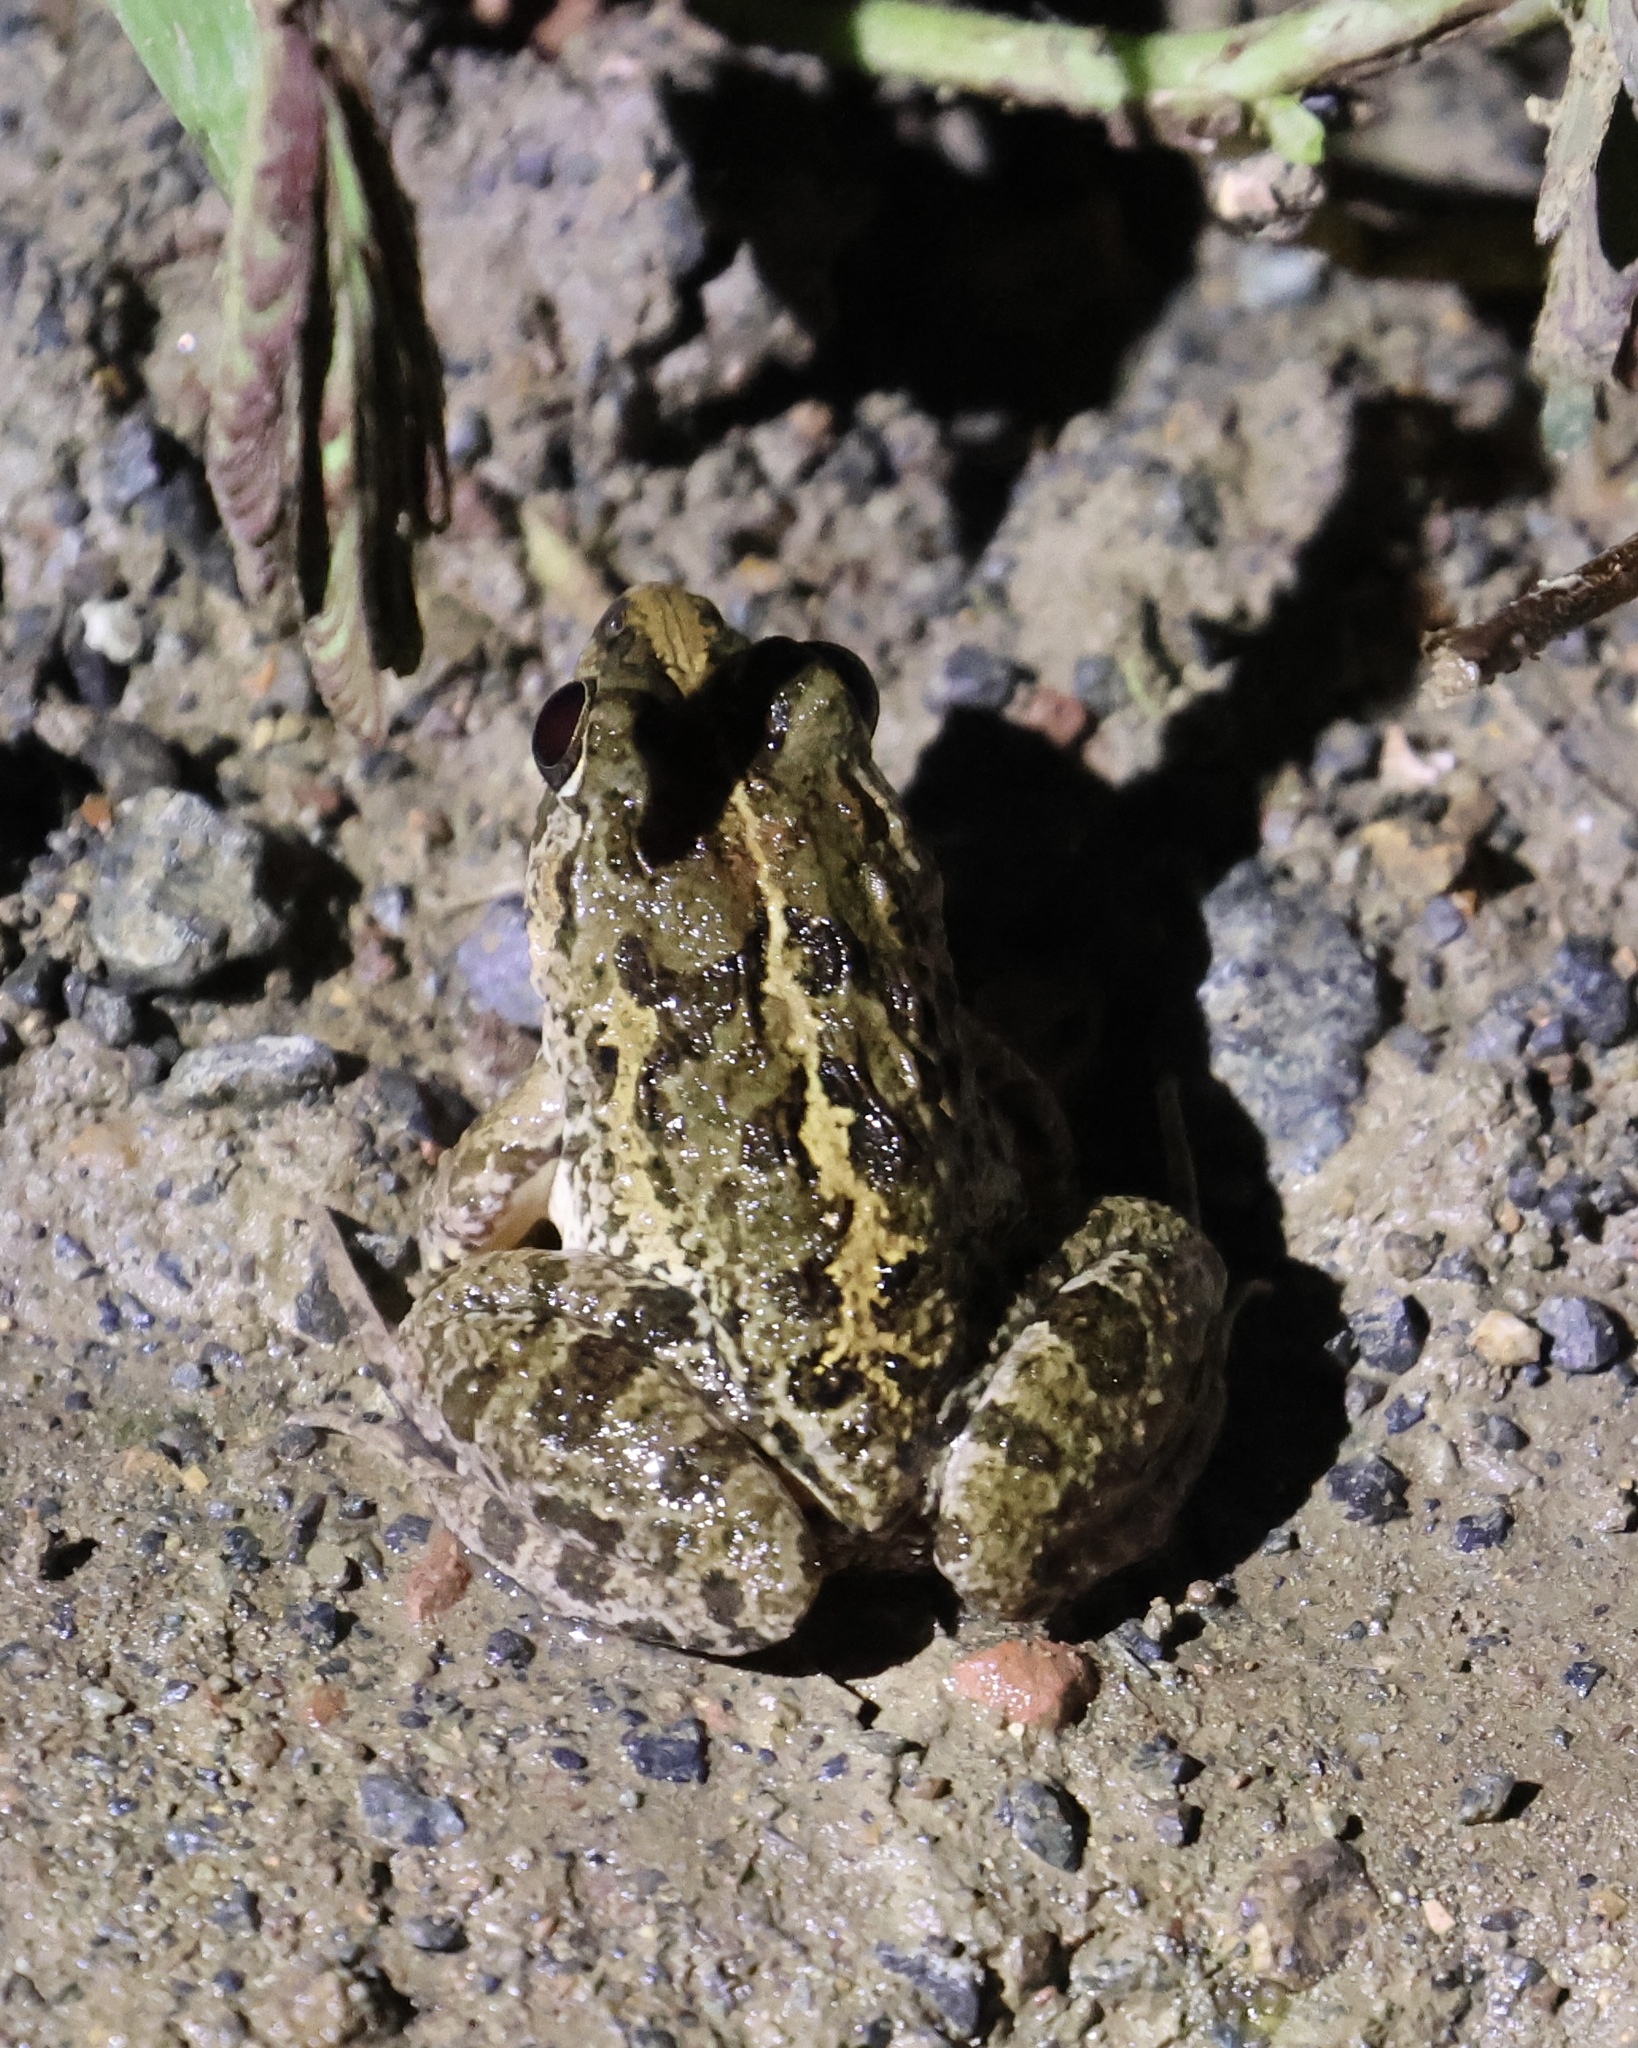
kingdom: Animalia
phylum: Chordata
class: Amphibia
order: Anura
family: Dicroglossidae
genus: Fejervarya
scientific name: Fejervarya limnocharis
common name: Asian grass frog/common pond frog/field frog/grass frog/indian rice frog
